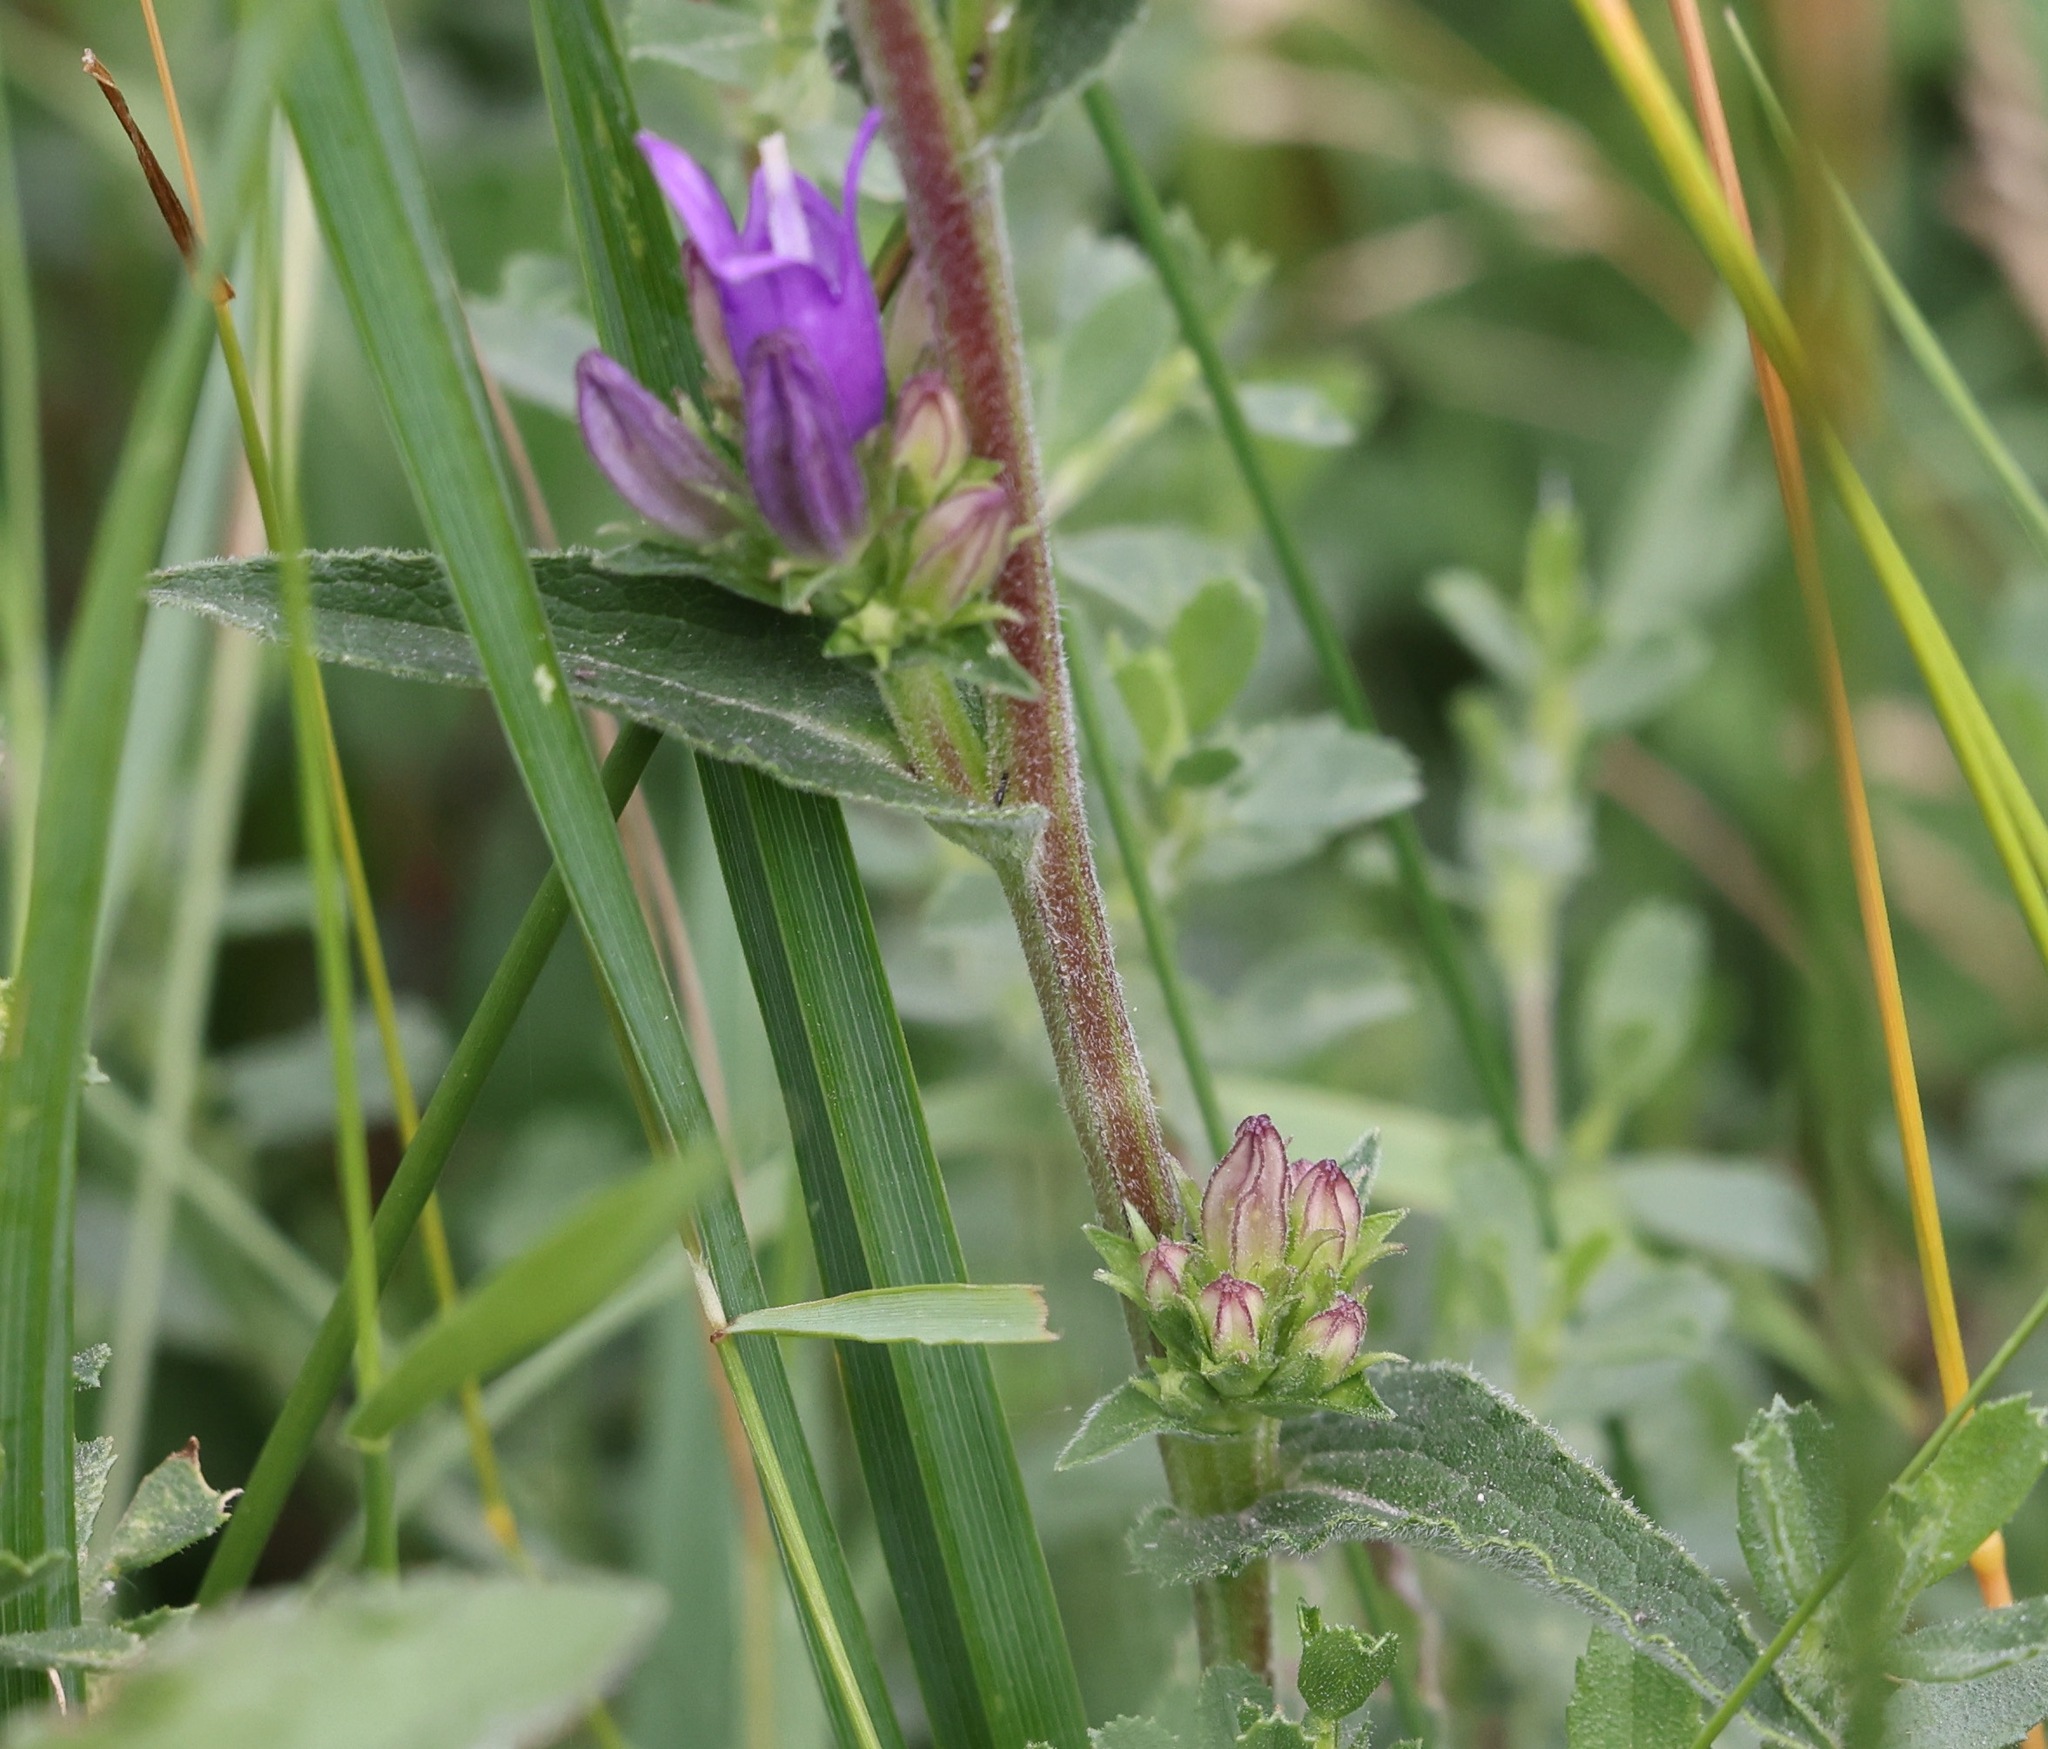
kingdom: Plantae
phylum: Tracheophyta
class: Magnoliopsida
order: Asterales
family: Campanulaceae
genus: Campanula
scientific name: Campanula glomerata
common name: Clustered bellflower
